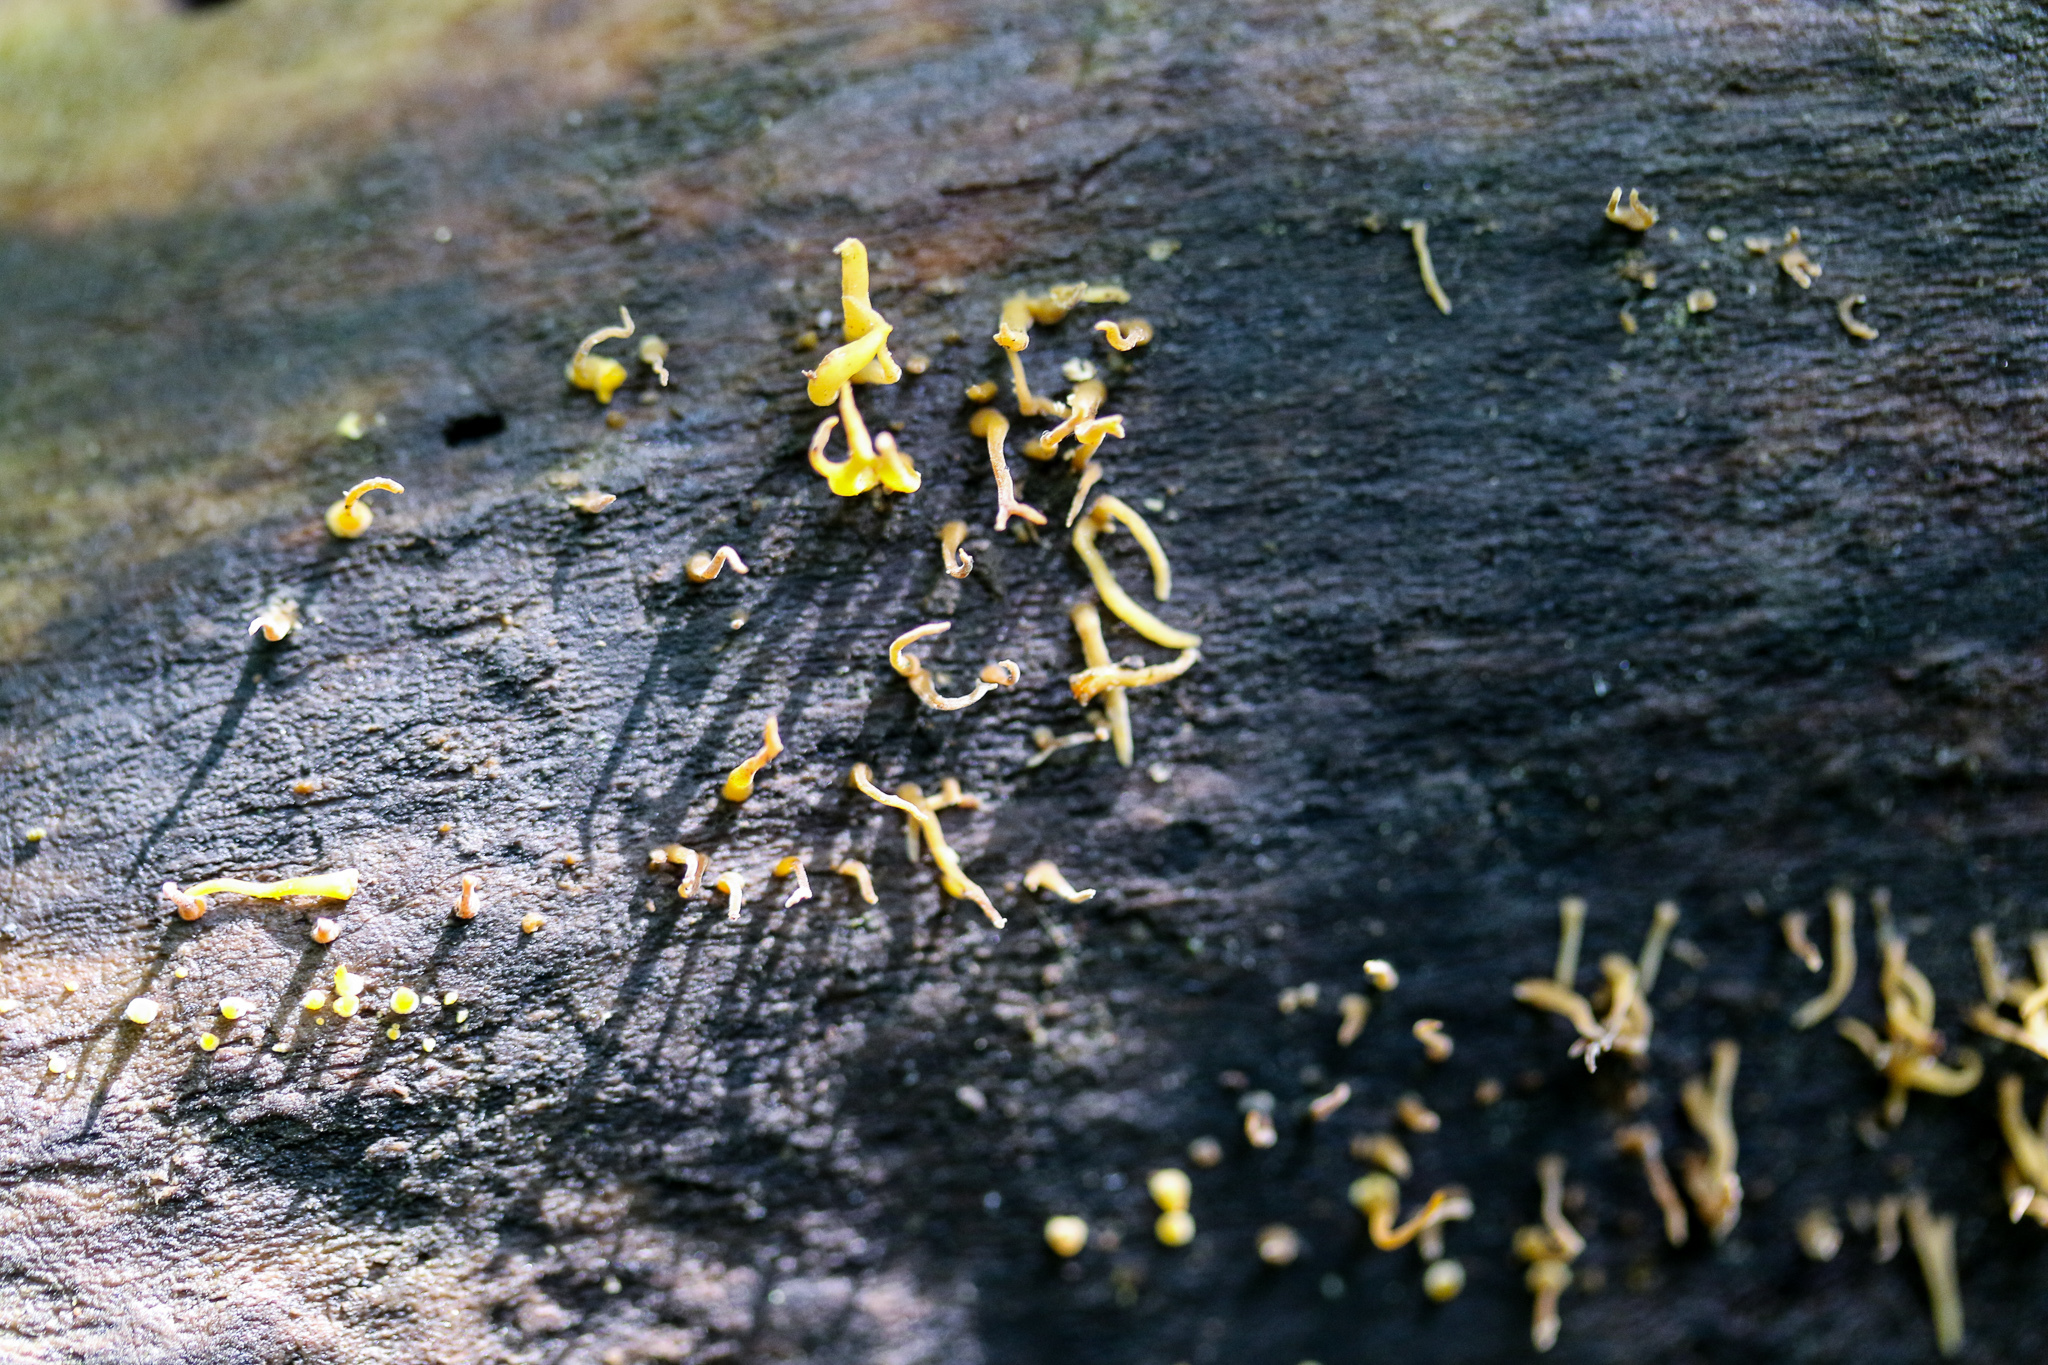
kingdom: Fungi
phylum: Basidiomycota
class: Dacrymycetes
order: Dacrymycetales
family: Dacrymycetaceae
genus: Calocera
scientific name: Calocera cornea
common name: Small stagshorn
